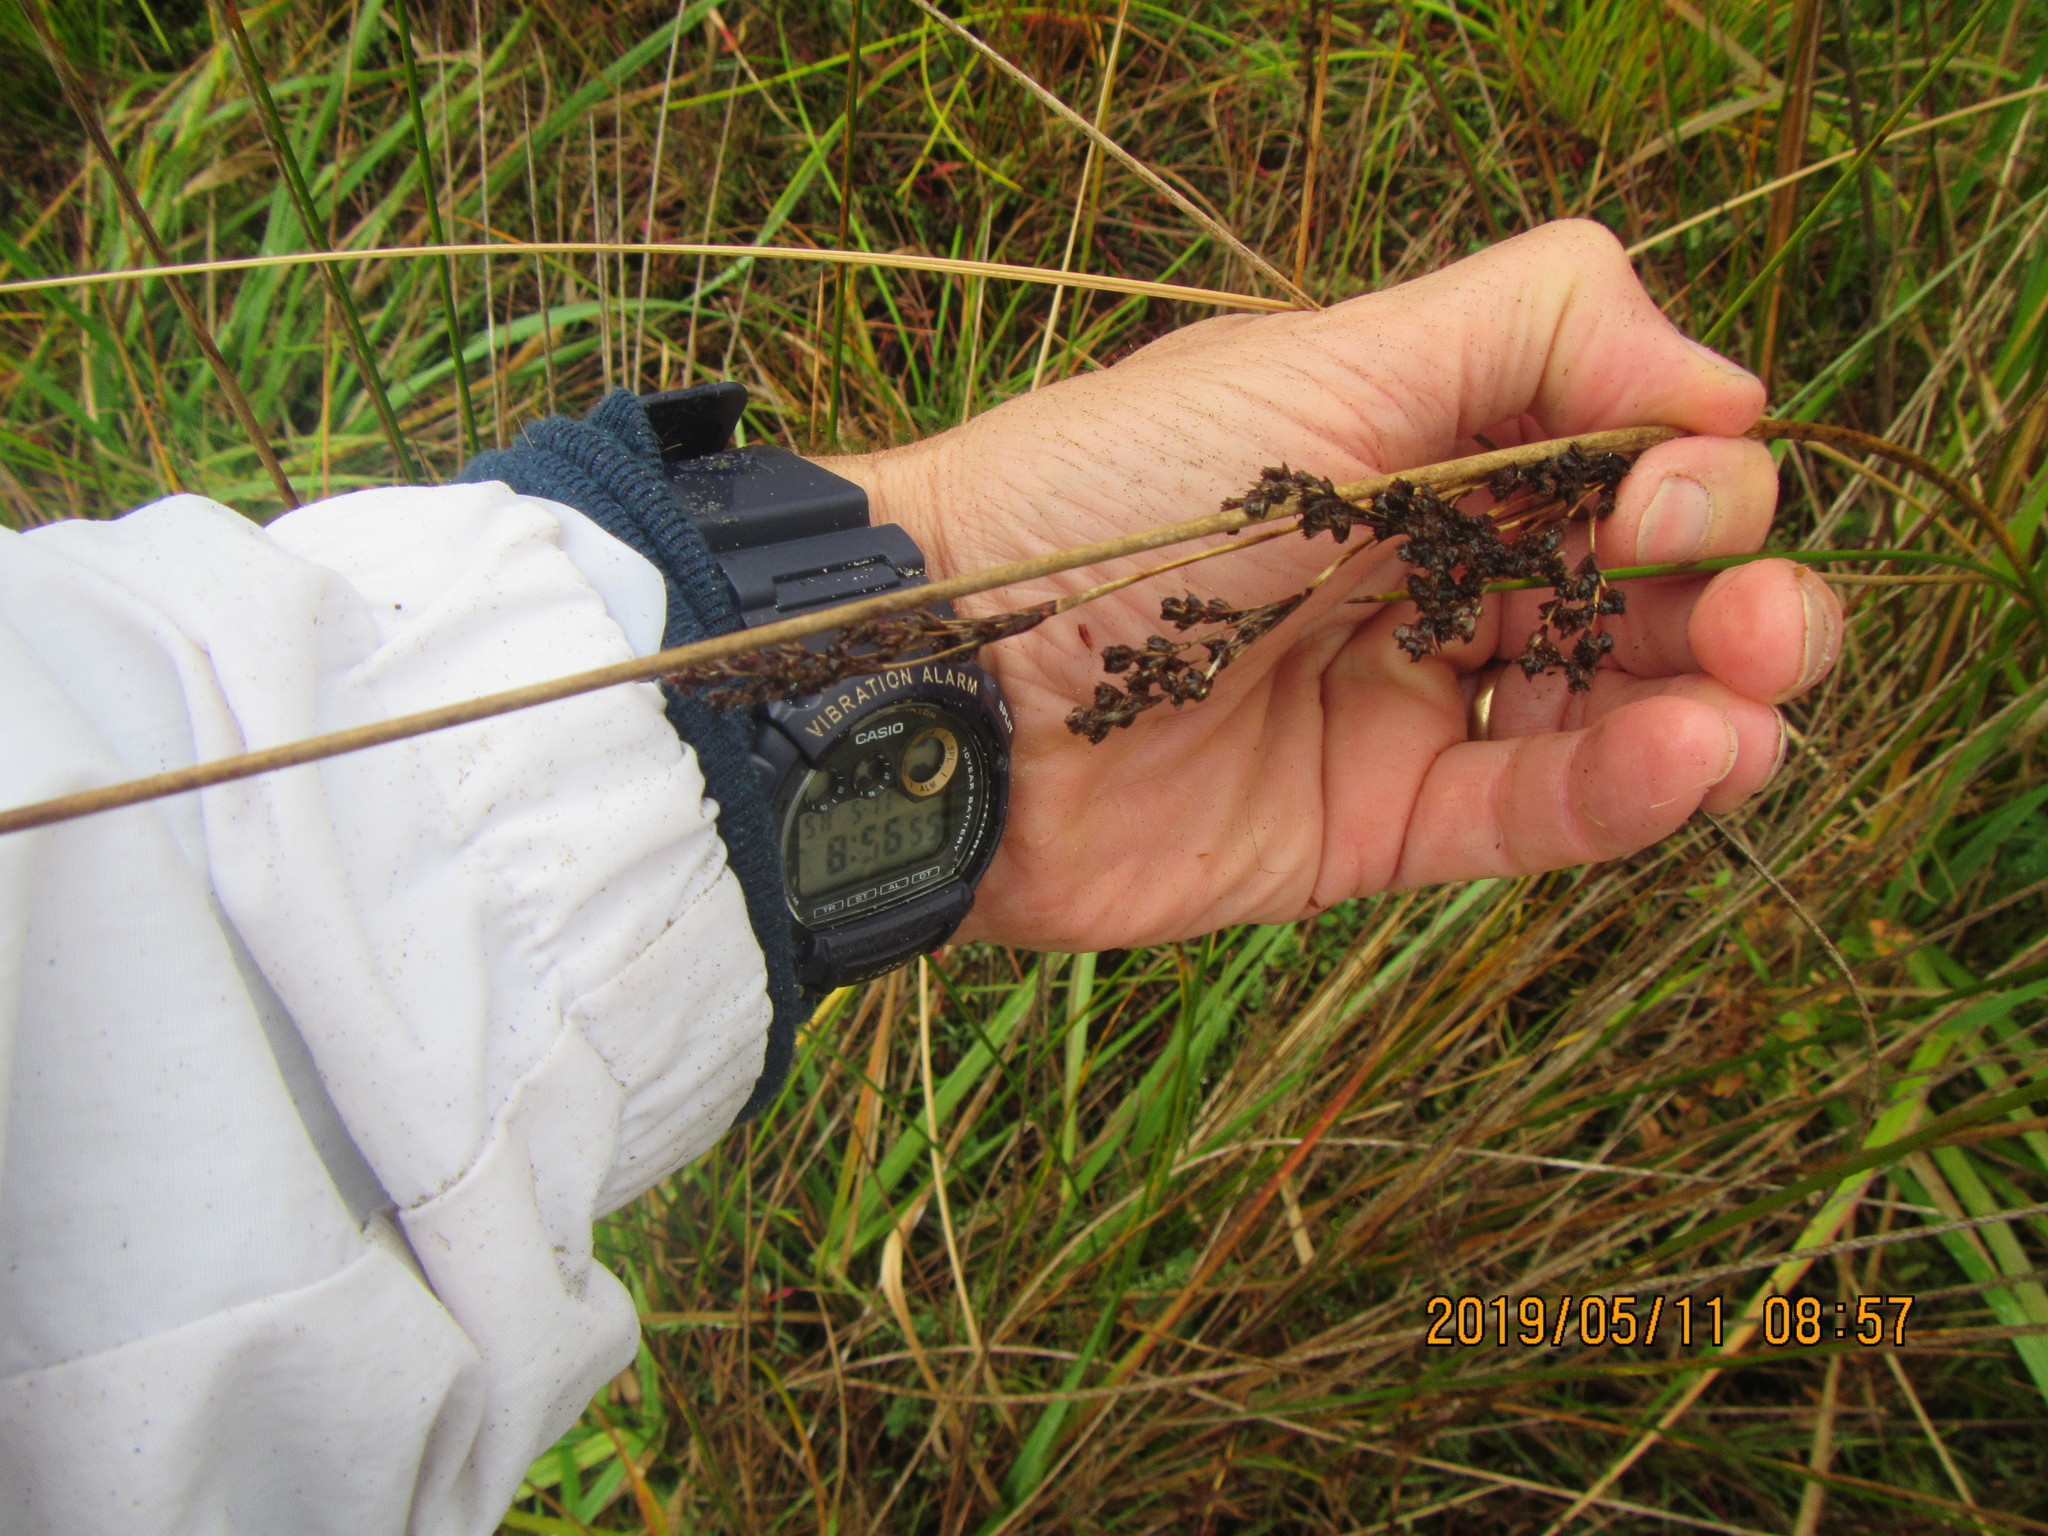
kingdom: Plantae
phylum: Tracheophyta
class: Liliopsida
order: Poales
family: Juncaceae
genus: Juncus
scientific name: Juncus kraussii
